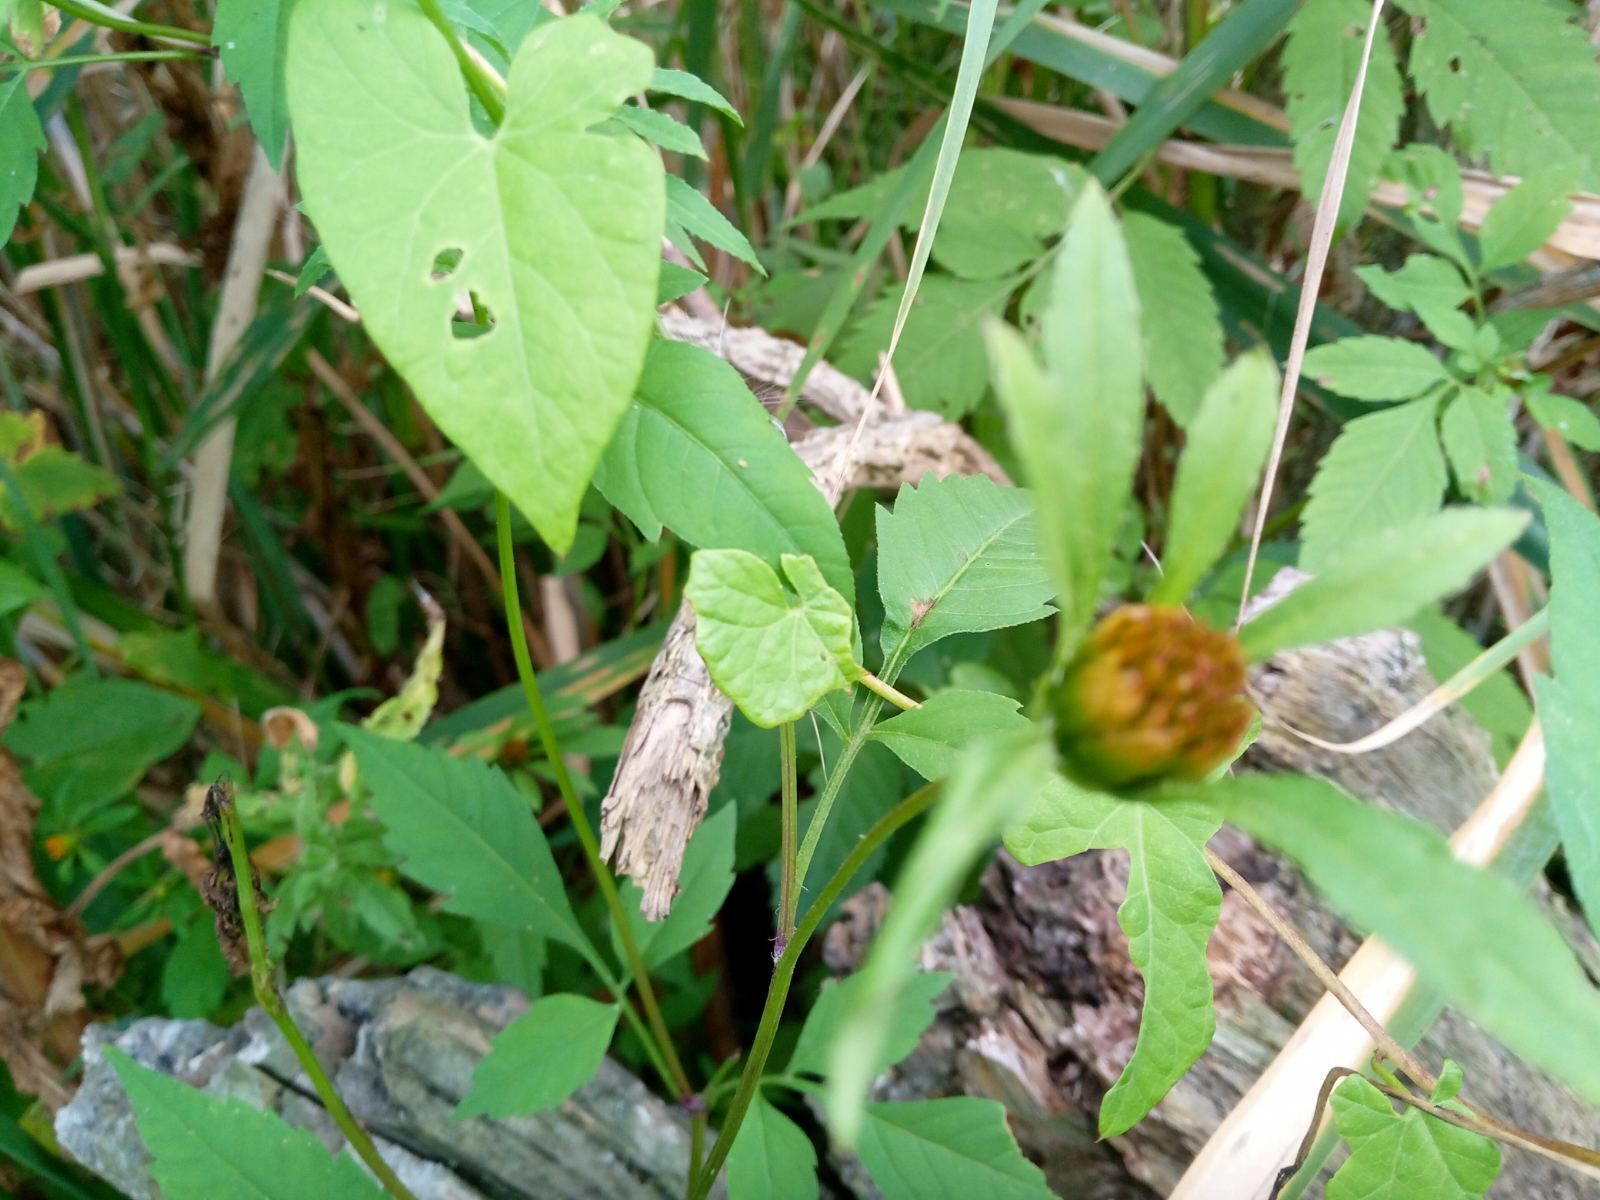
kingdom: Plantae
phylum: Tracheophyta
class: Magnoliopsida
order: Asterales
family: Asteraceae
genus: Bidens
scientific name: Bidens frondosa
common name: Beggarticks
